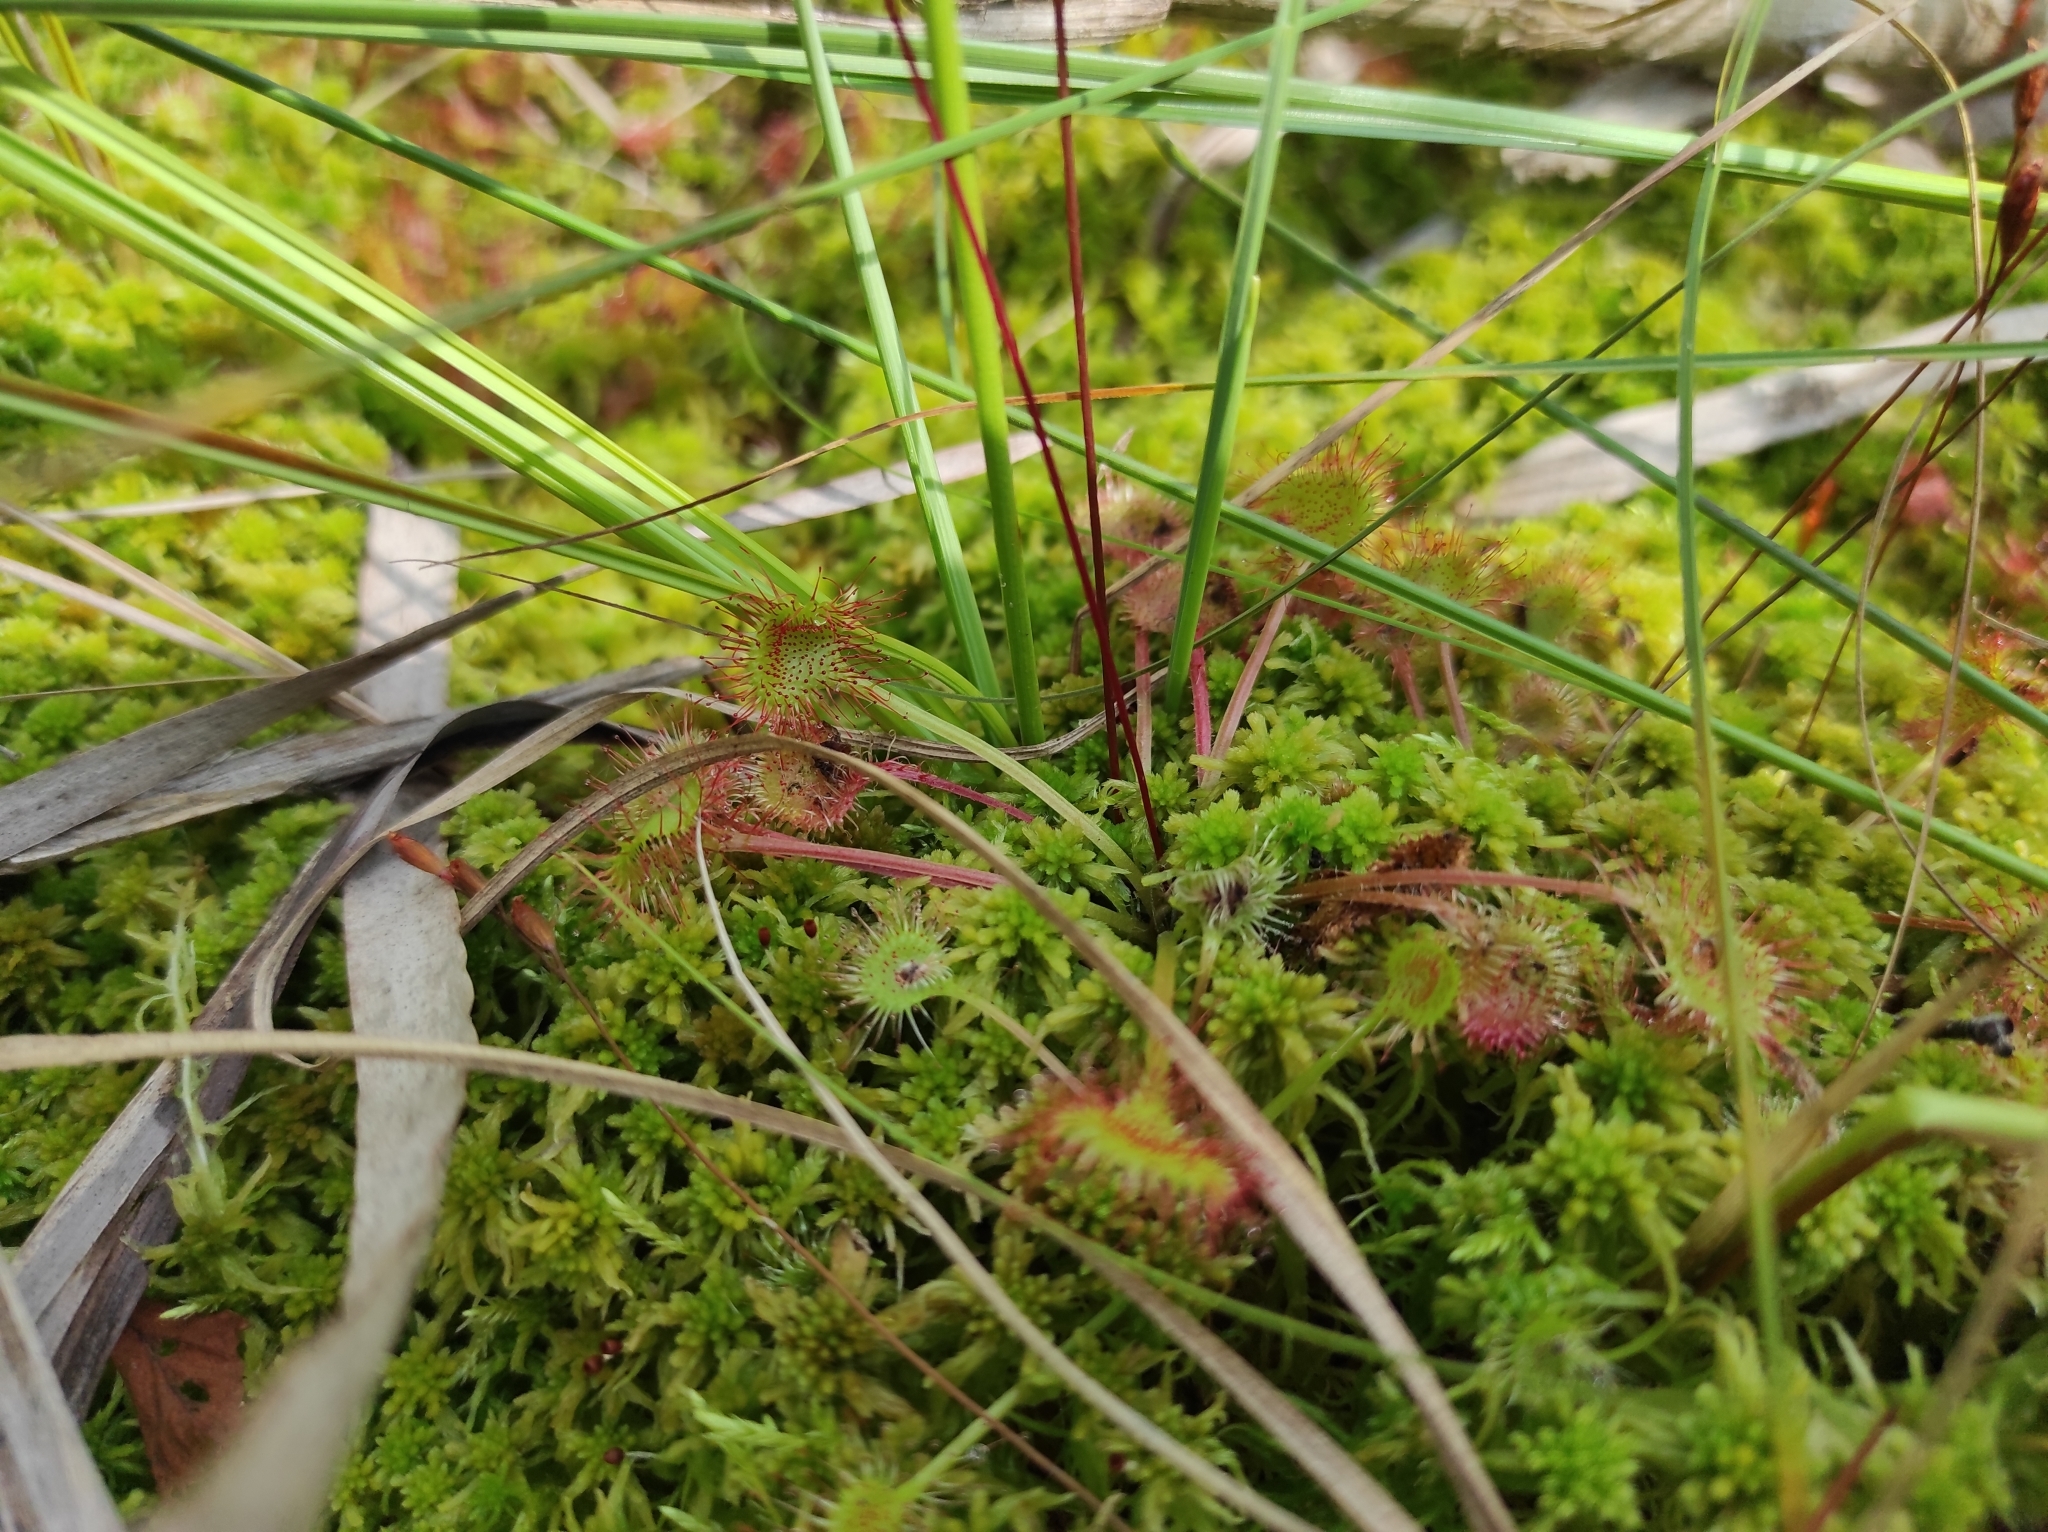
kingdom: Plantae
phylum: Tracheophyta
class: Magnoliopsida
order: Caryophyllales
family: Droseraceae
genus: Drosera
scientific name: Drosera rotundifolia
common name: Round-leaved sundew
